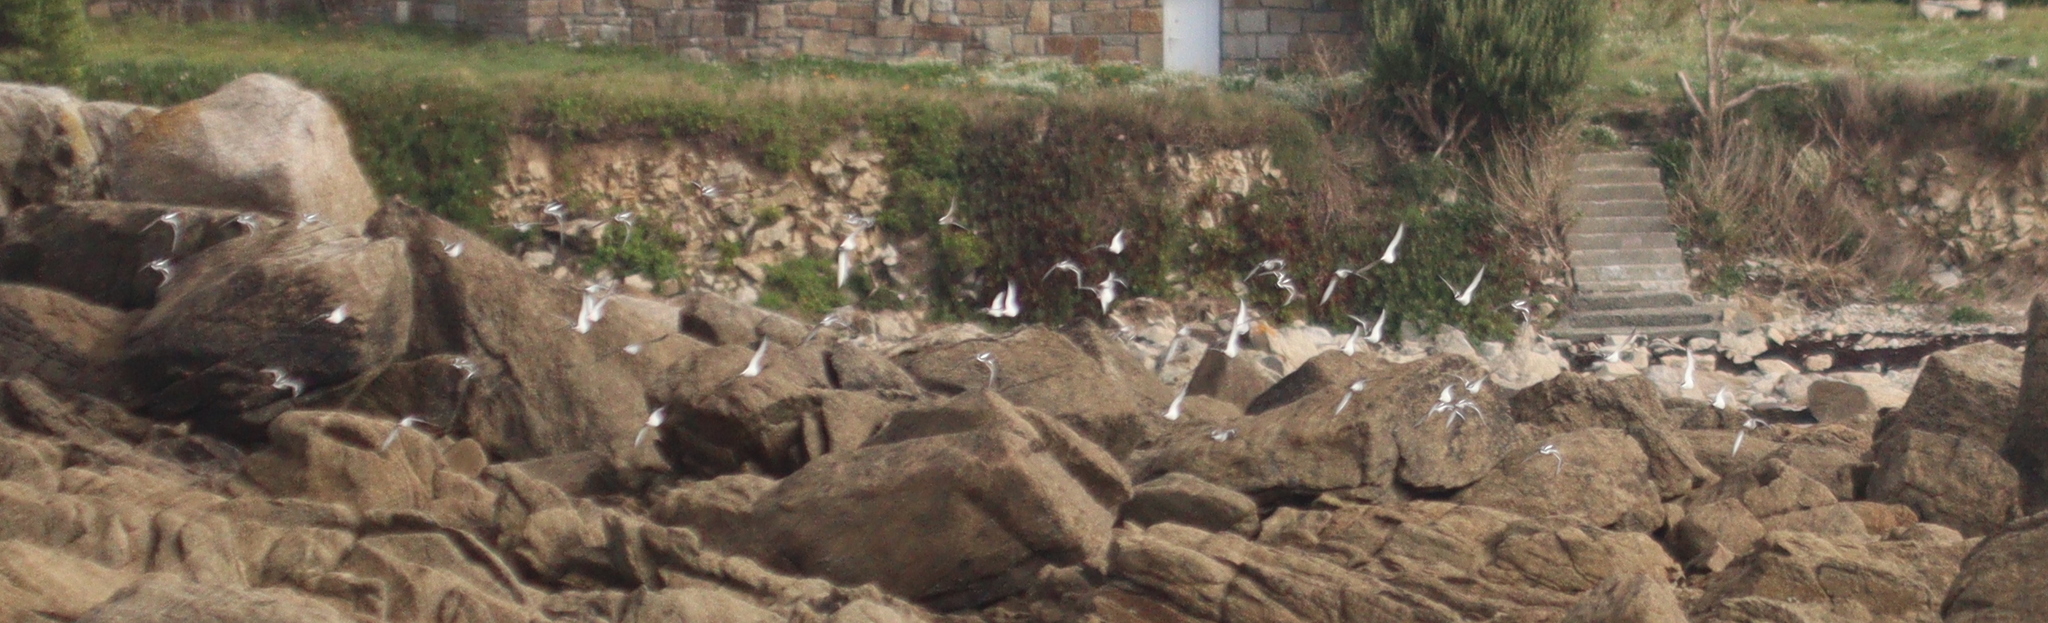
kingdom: Animalia
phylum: Chordata
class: Aves
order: Charadriiformes
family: Scolopacidae
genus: Arenaria
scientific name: Arenaria interpres
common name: Ruddy turnstone
